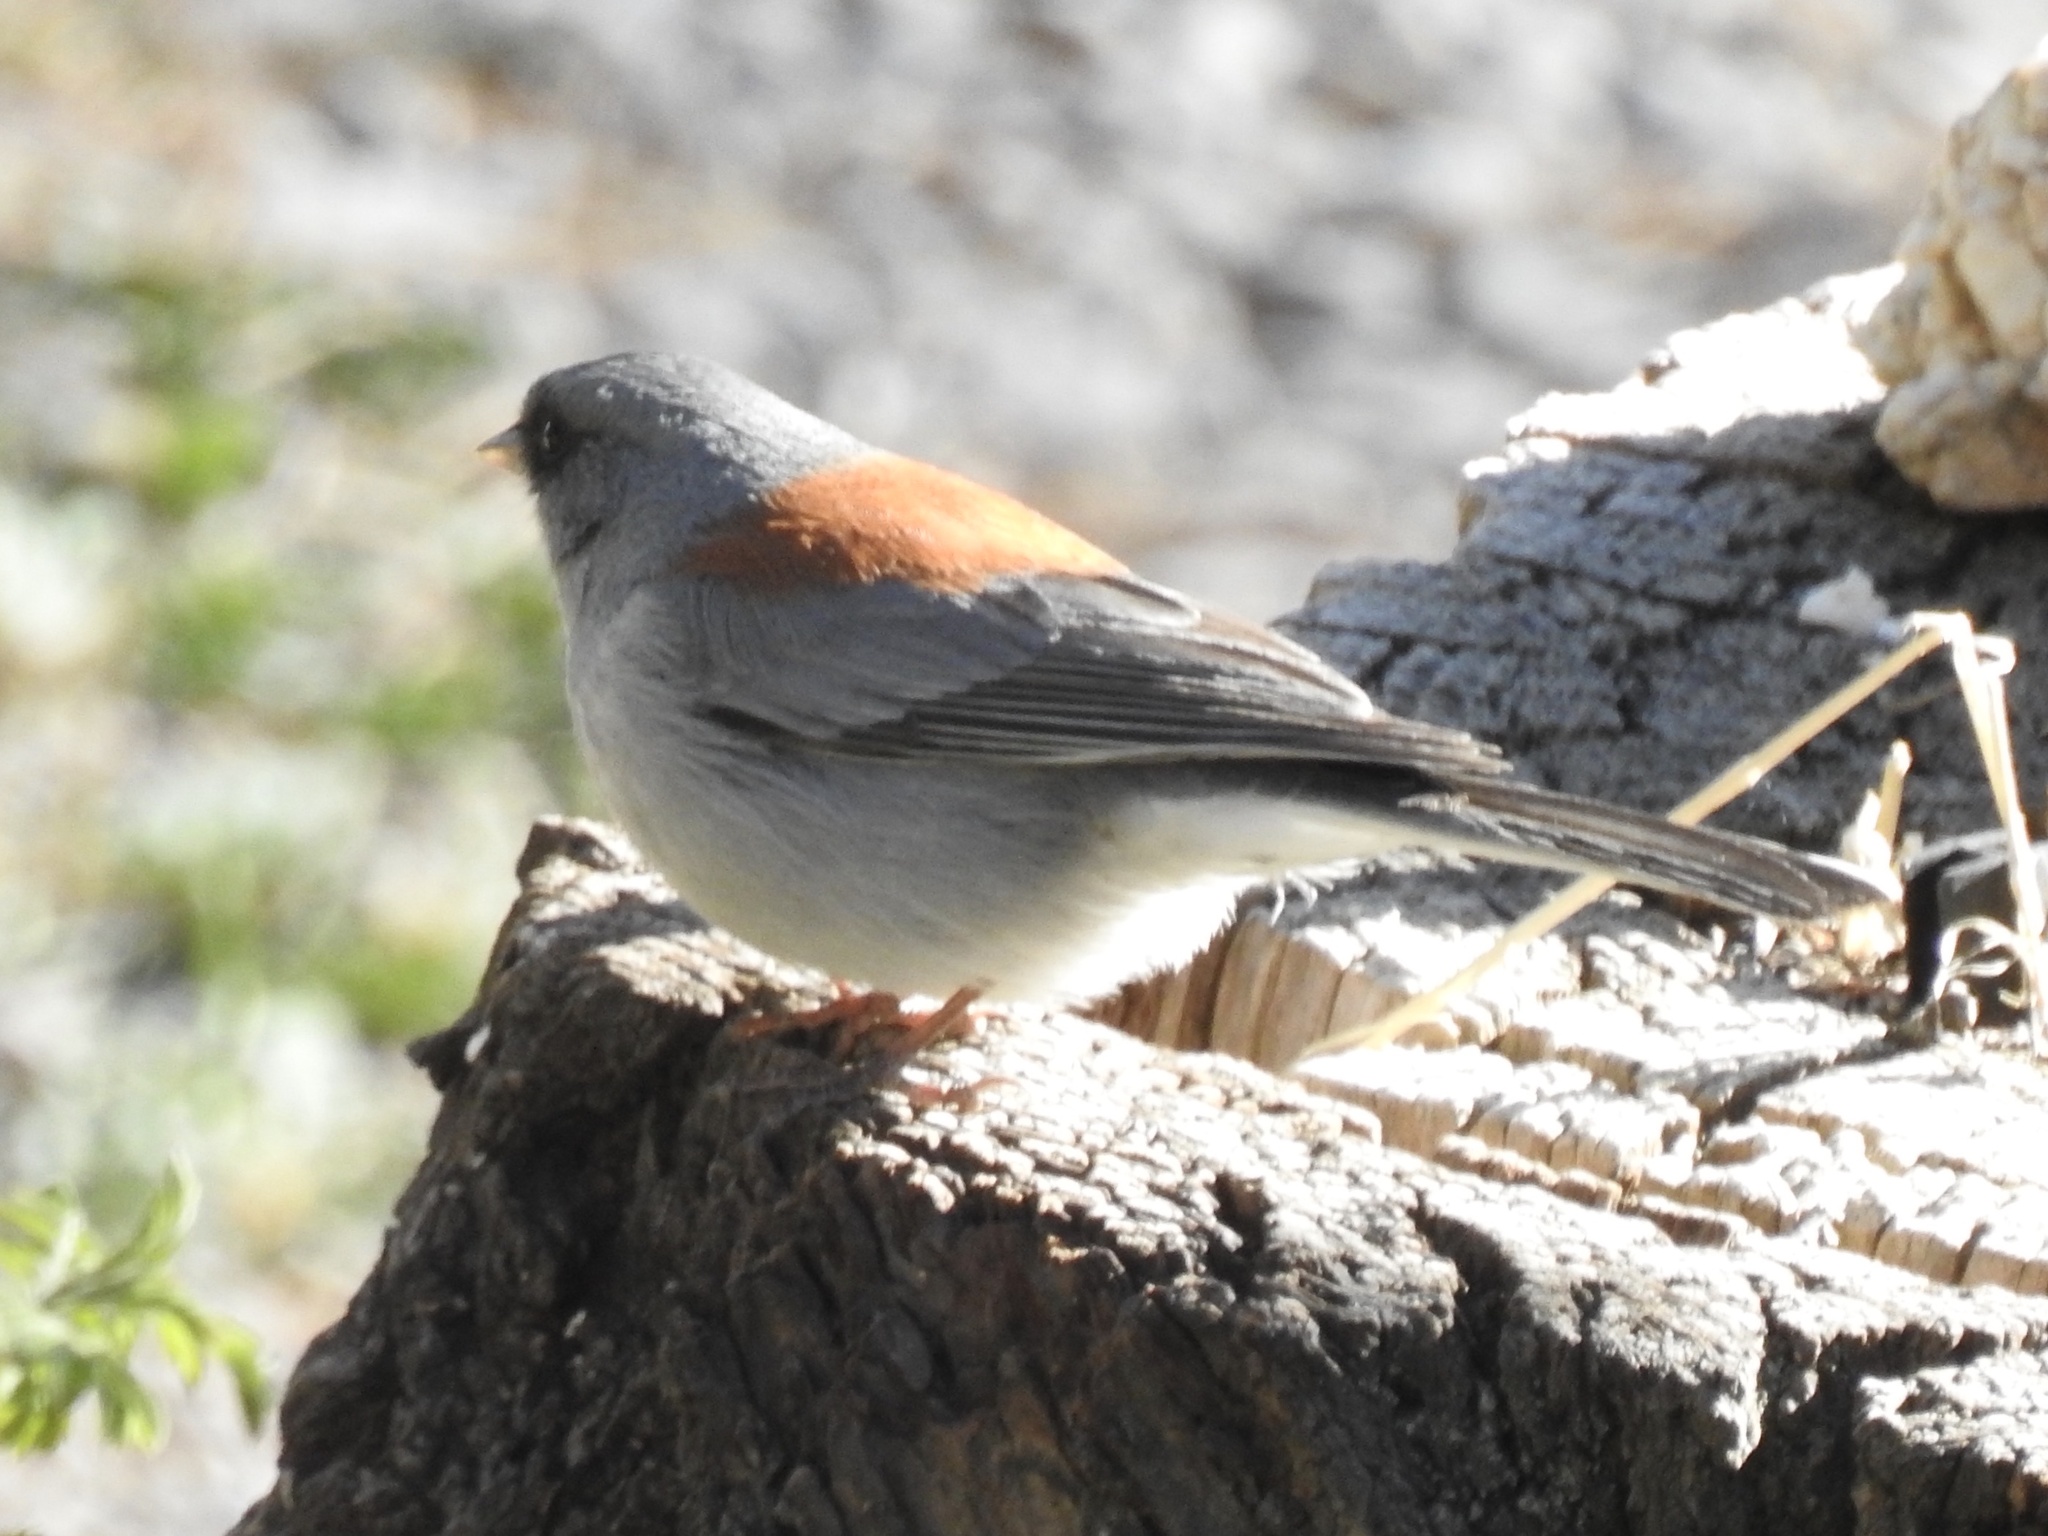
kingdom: Animalia
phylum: Chordata
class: Aves
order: Passeriformes
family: Passerellidae
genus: Junco
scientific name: Junco hyemalis
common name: Dark-eyed junco
